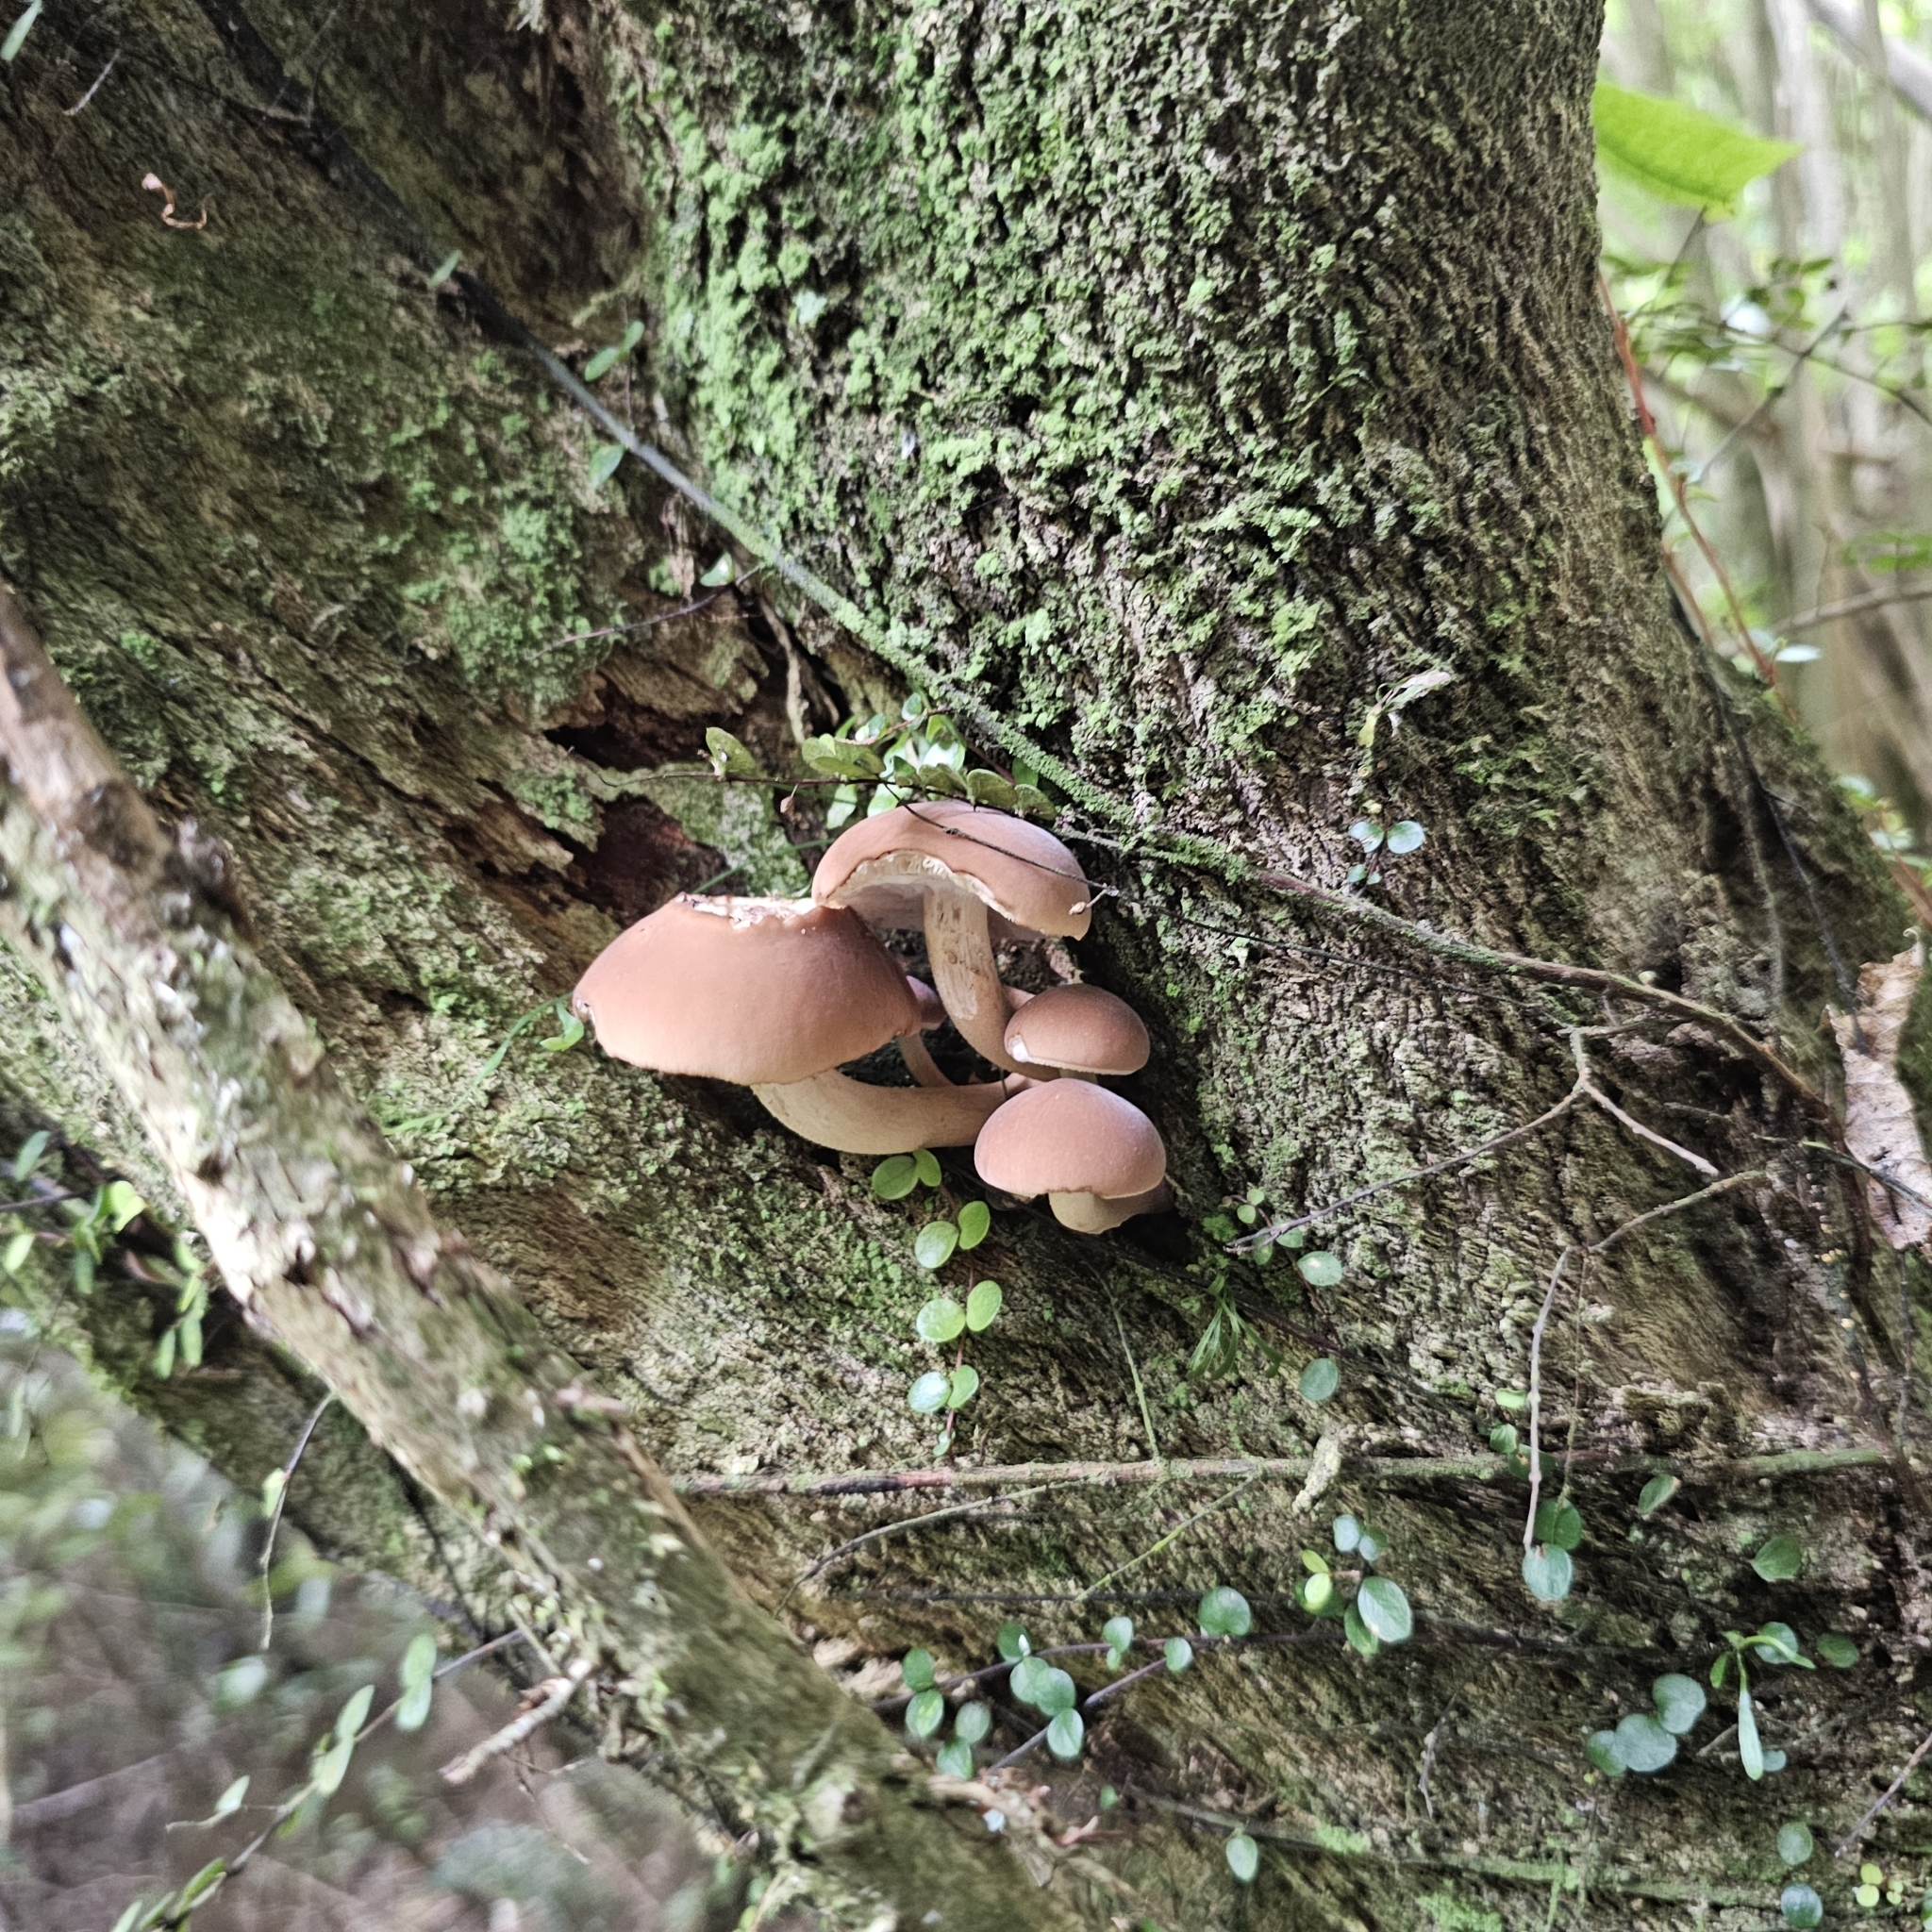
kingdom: Fungi
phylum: Basidiomycota
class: Agaricomycetes
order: Agaricales
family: Tubariaceae
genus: Cyclocybe
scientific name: Cyclocybe parasitica
